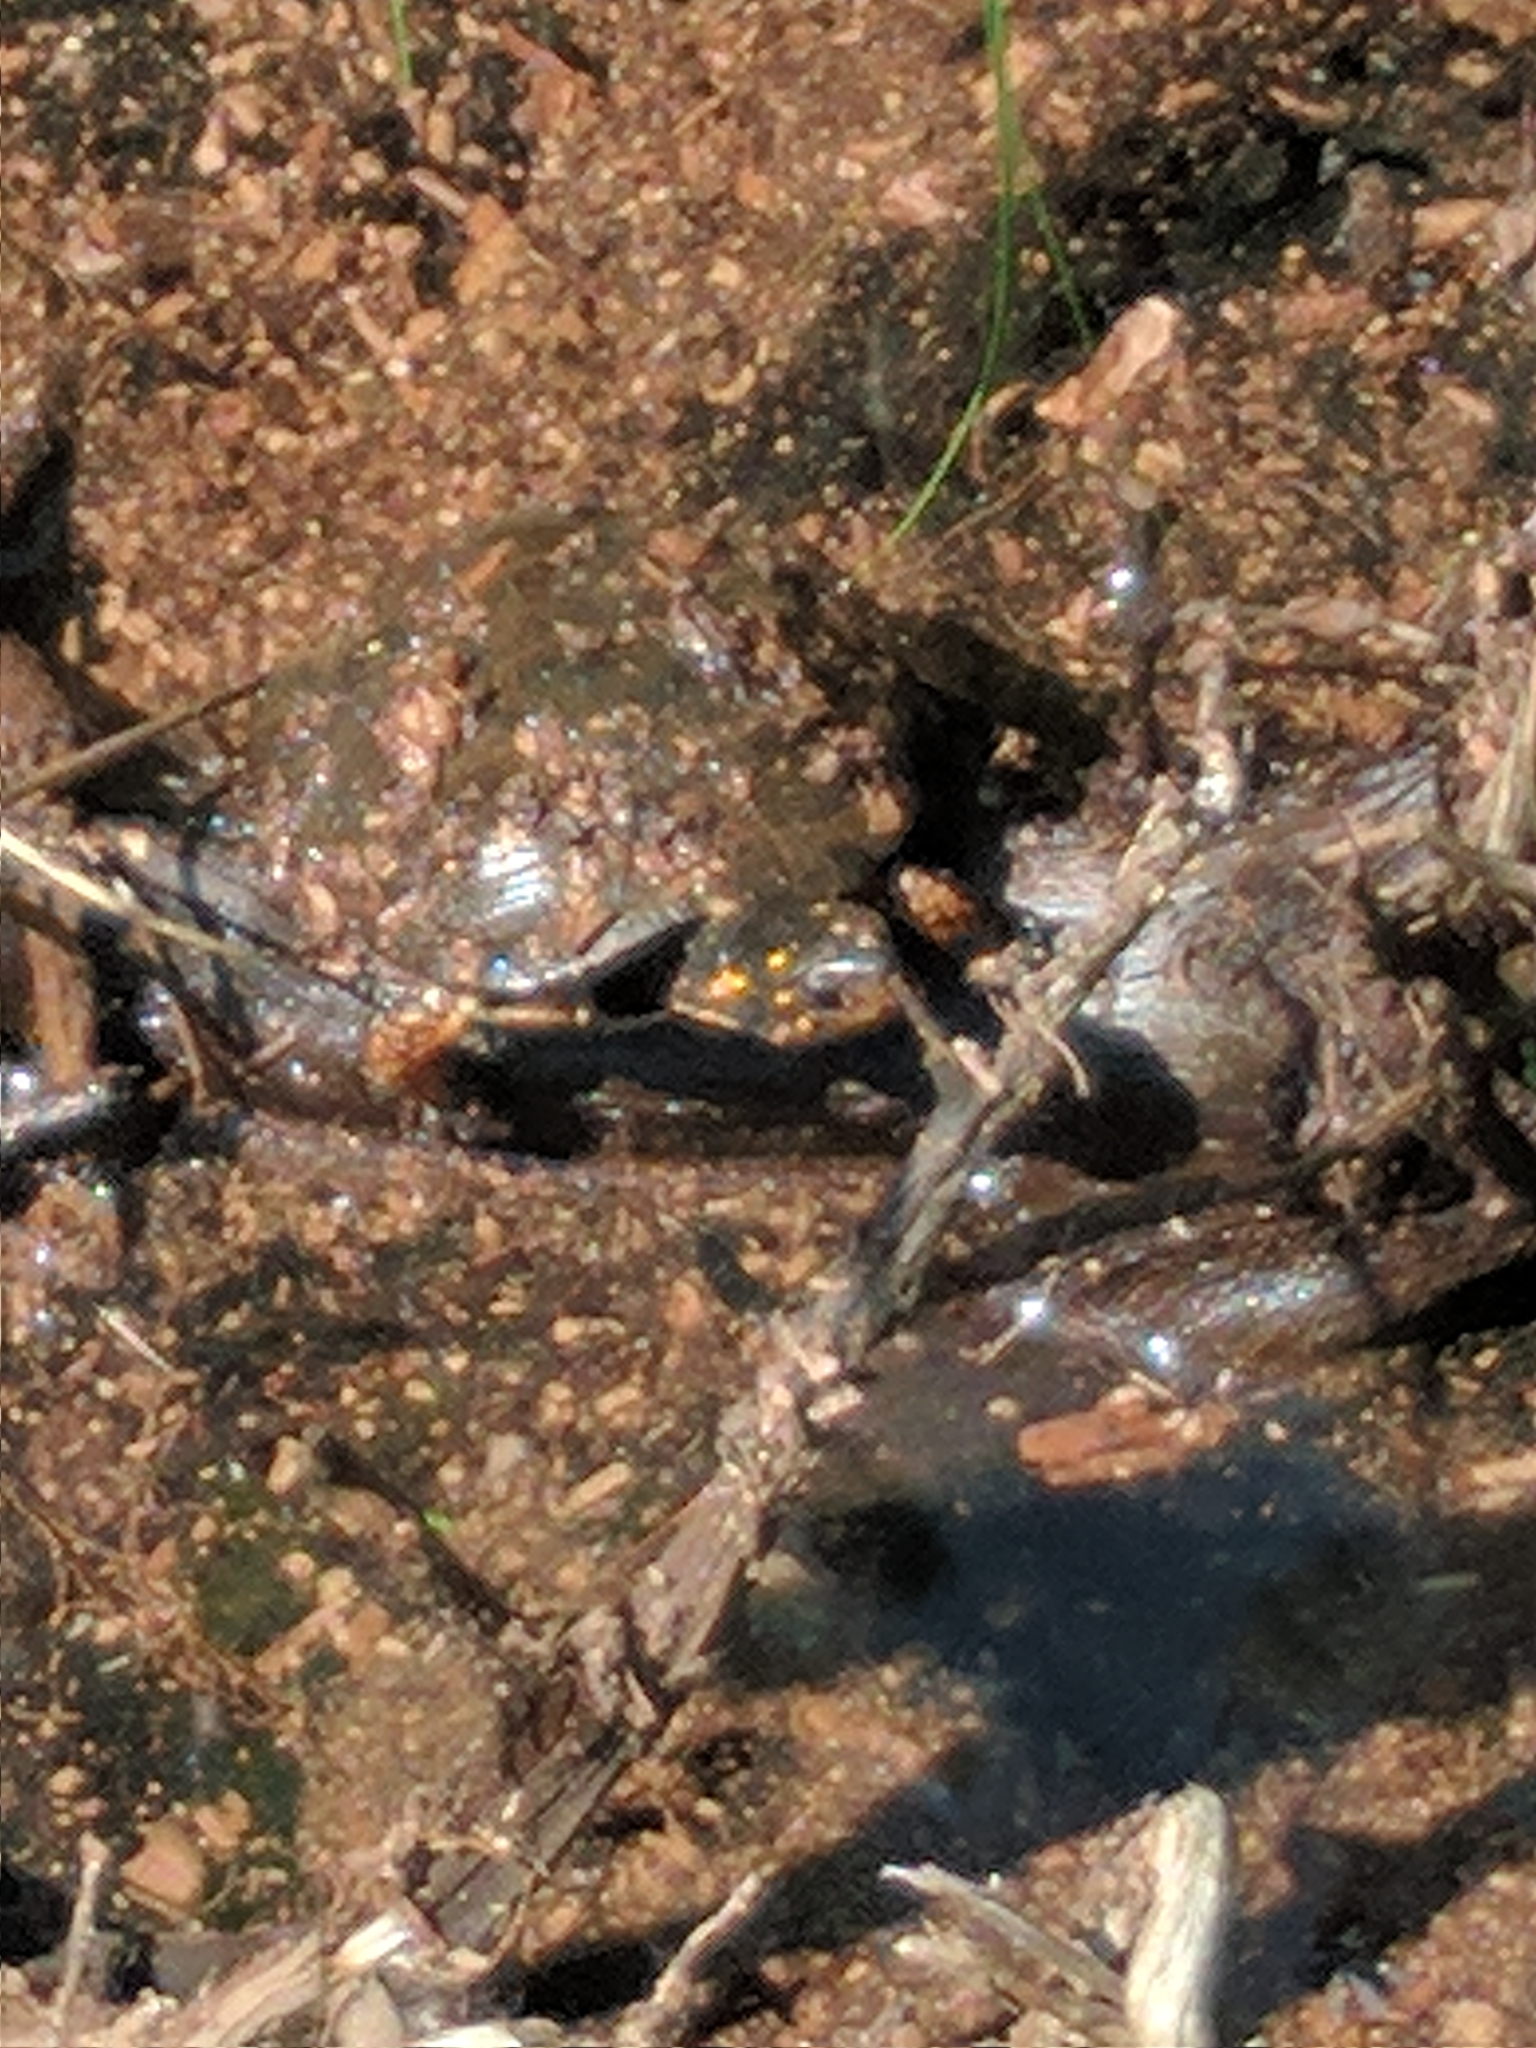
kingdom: Animalia
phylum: Chordata
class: Testudines
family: Emydidae
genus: Clemmys
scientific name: Clemmys guttata
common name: Spotted turtle
